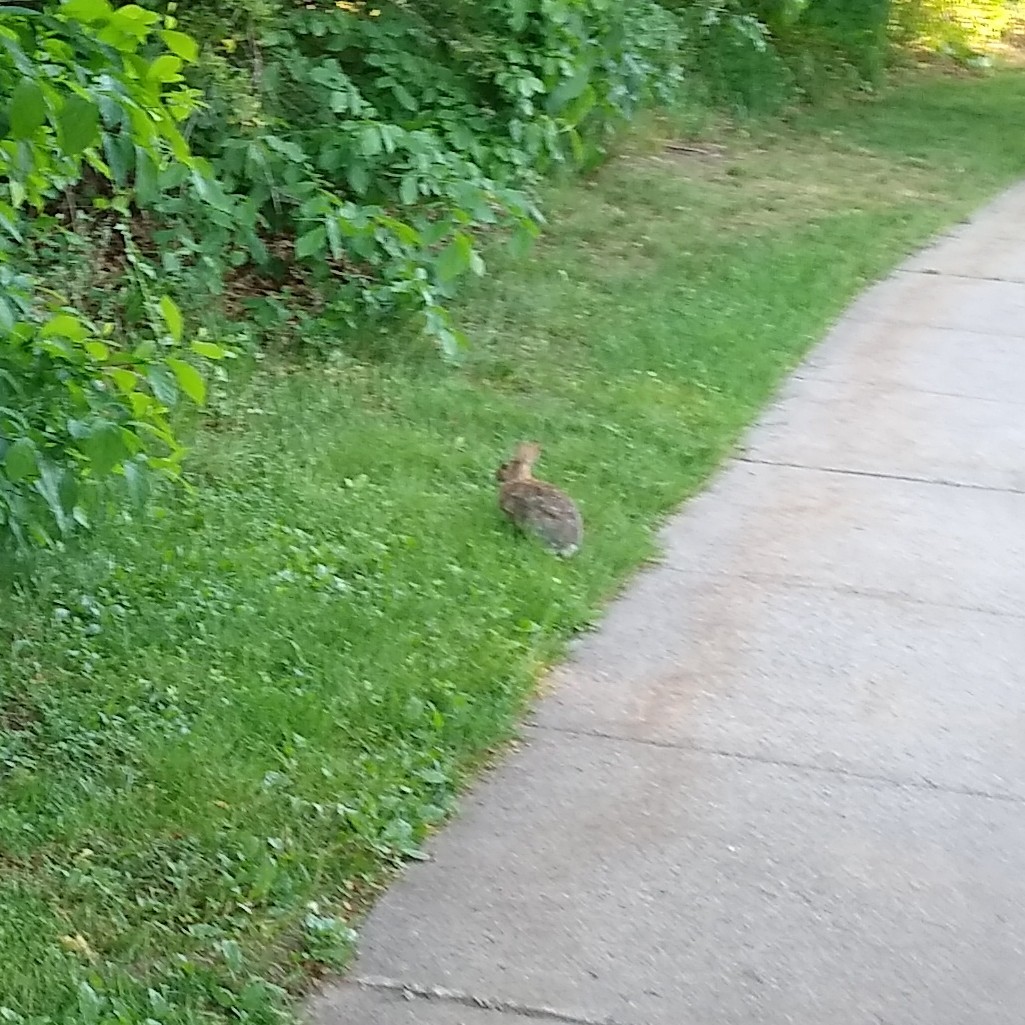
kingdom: Animalia
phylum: Chordata
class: Mammalia
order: Lagomorpha
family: Leporidae
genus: Sylvilagus
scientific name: Sylvilagus floridanus
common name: Eastern cottontail
